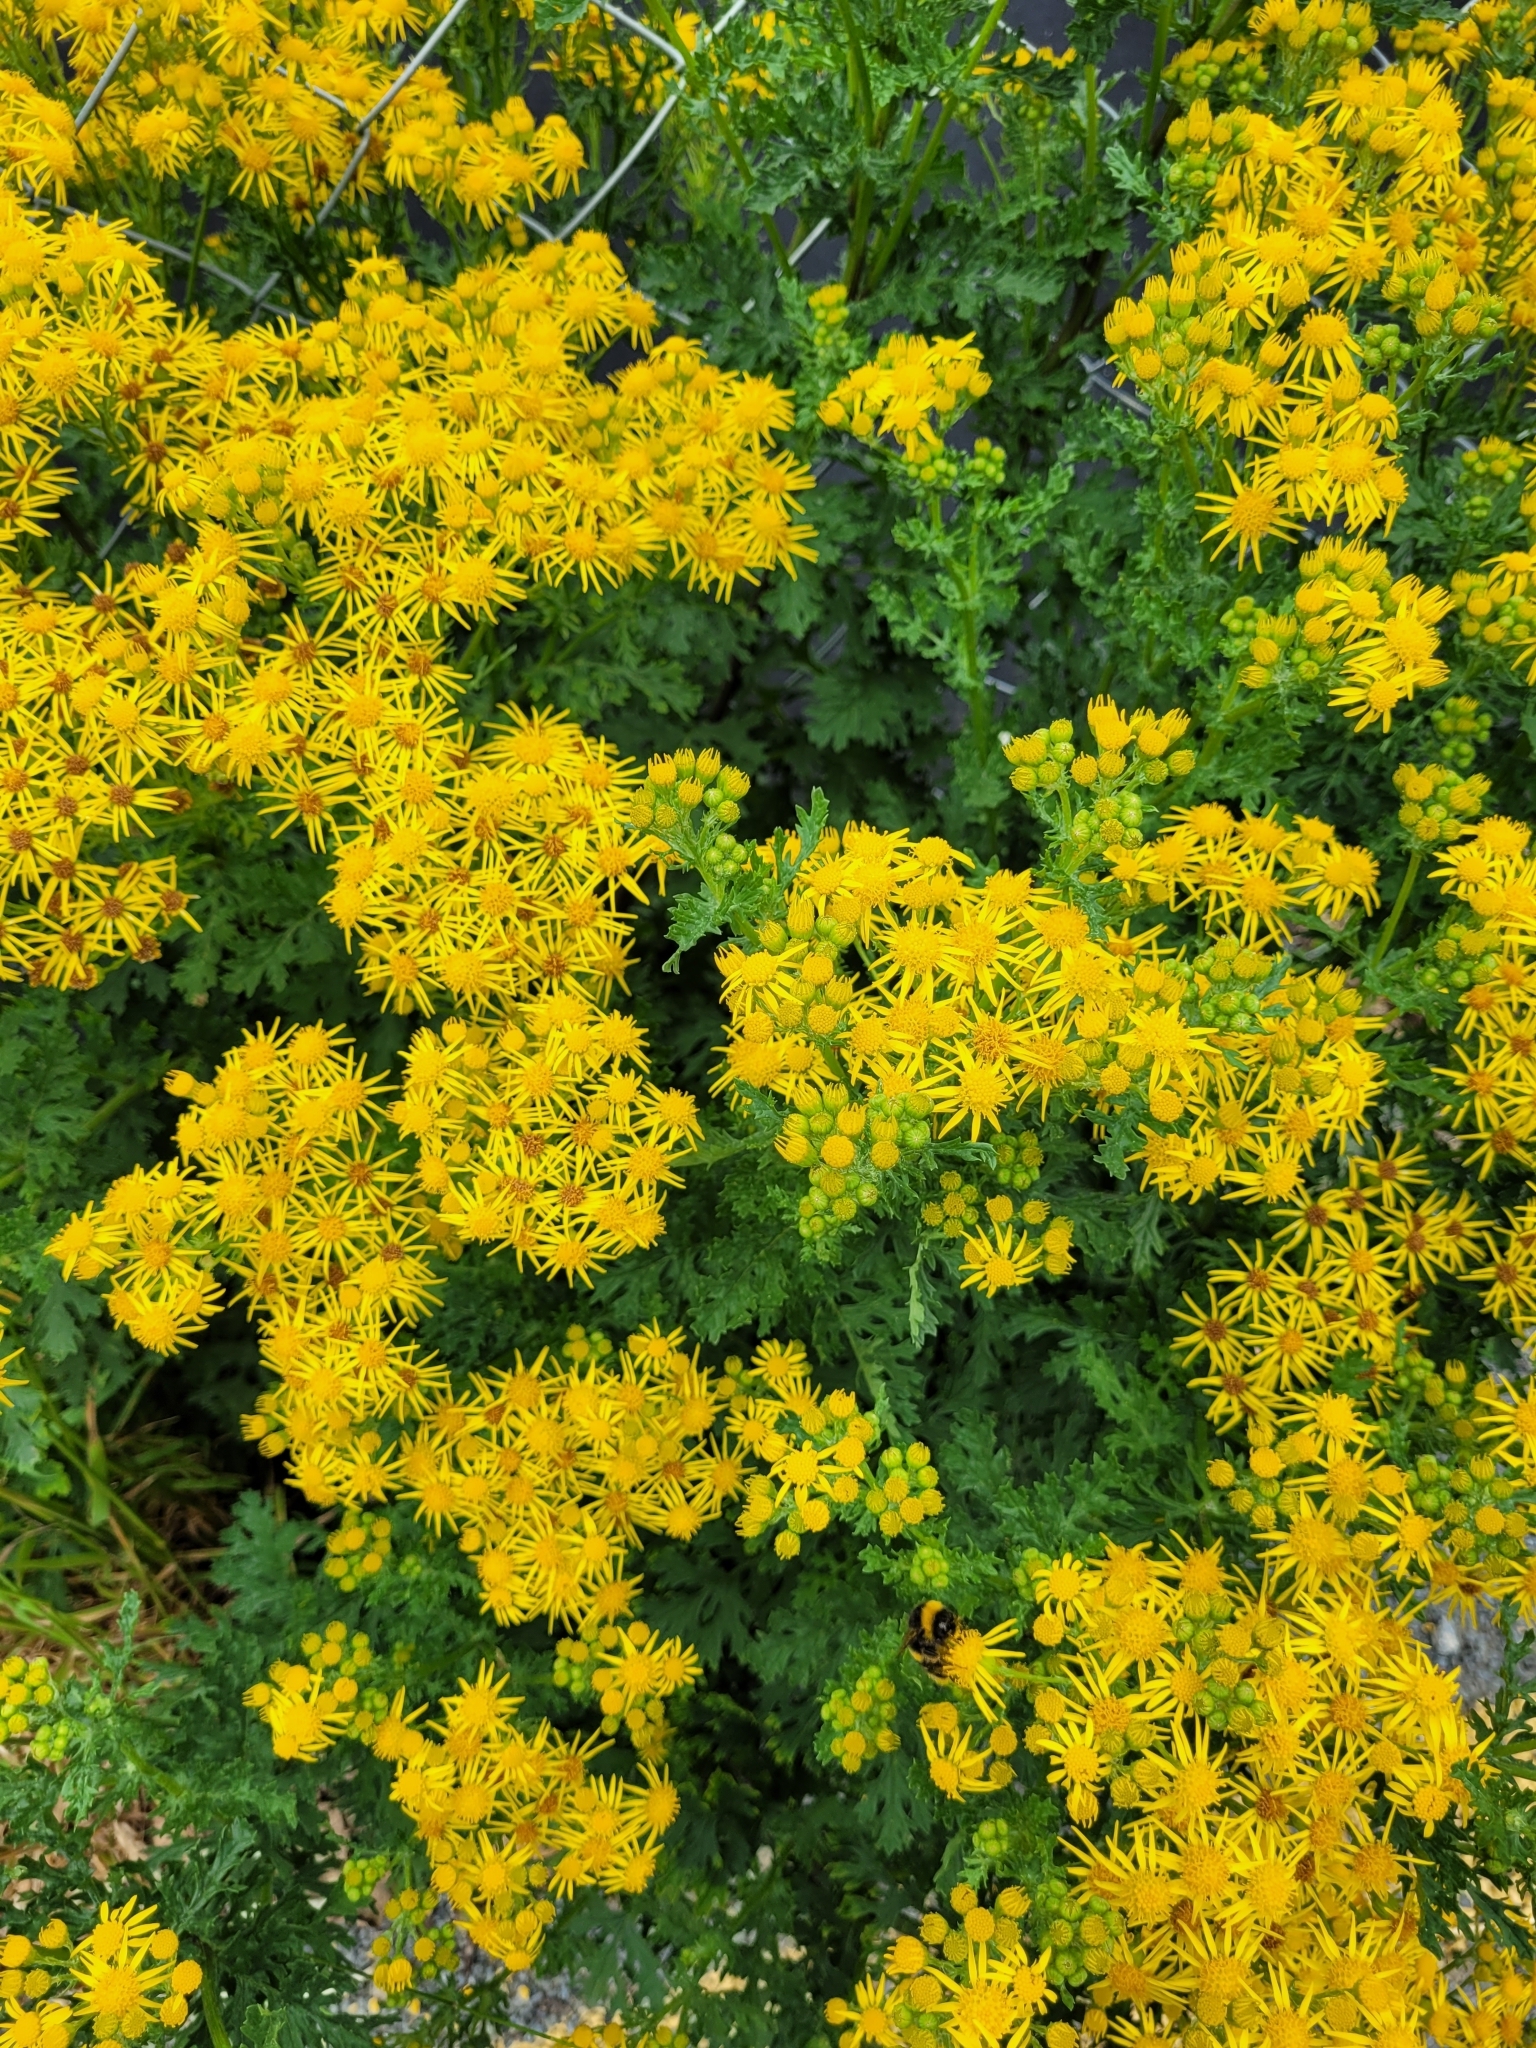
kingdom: Plantae
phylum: Tracheophyta
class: Magnoliopsida
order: Asterales
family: Asteraceae
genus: Jacobaea
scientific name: Jacobaea vulgaris
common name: Stinking willie
